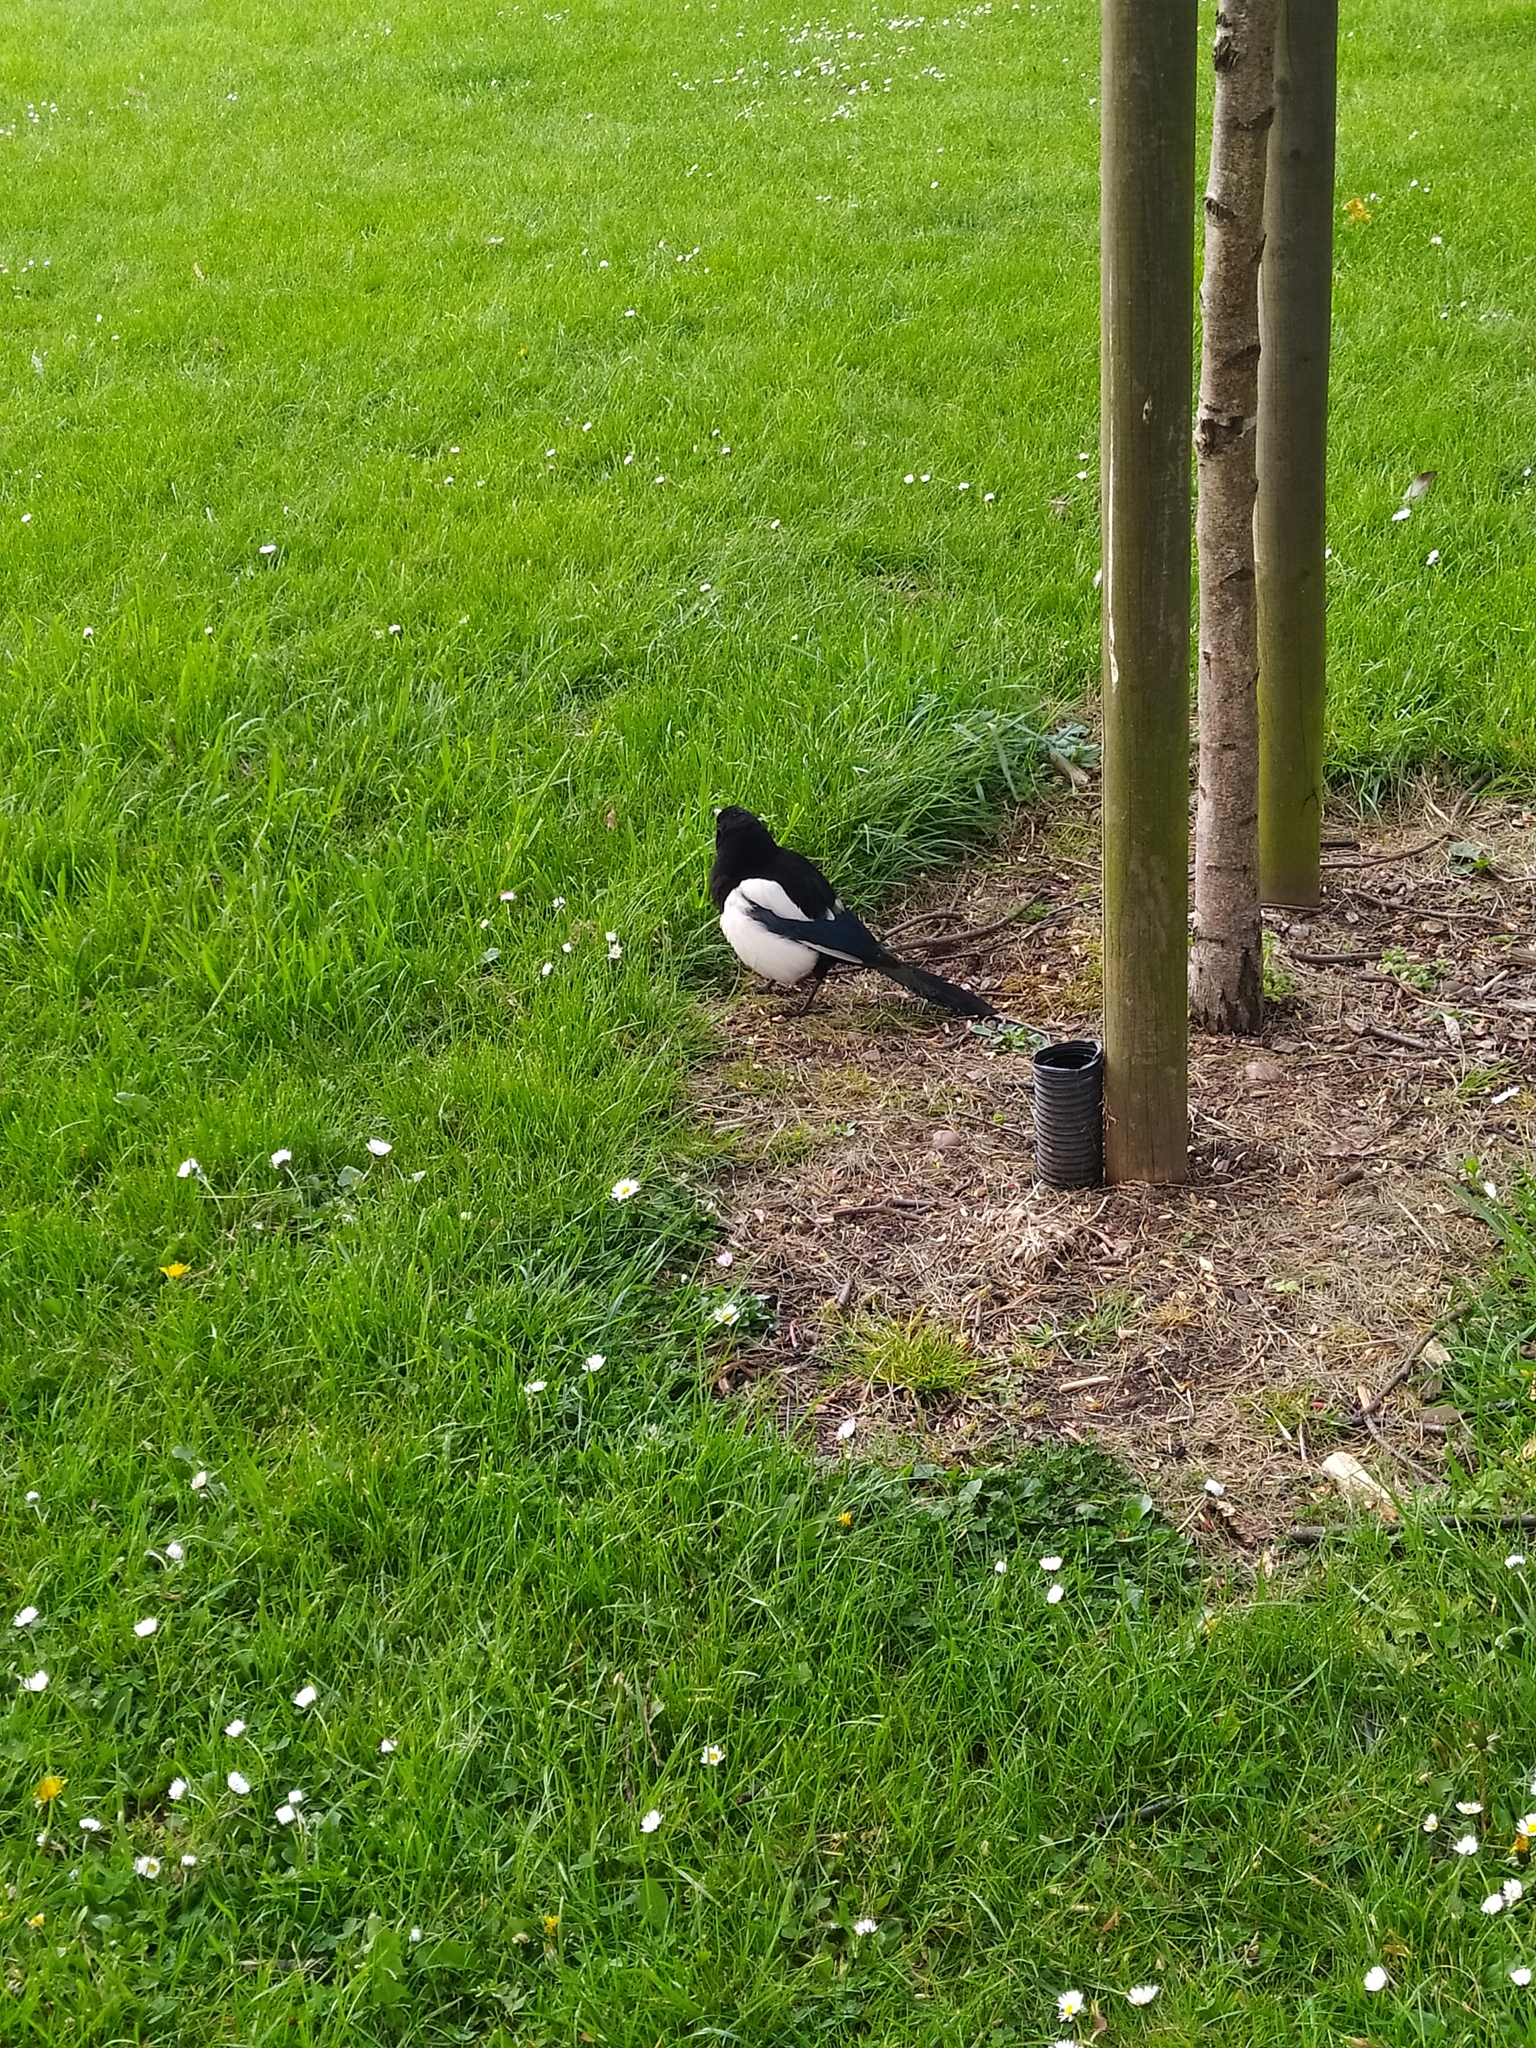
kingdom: Animalia
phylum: Chordata
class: Aves
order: Passeriformes
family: Corvidae
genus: Pica
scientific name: Pica pica
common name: Eurasian magpie
